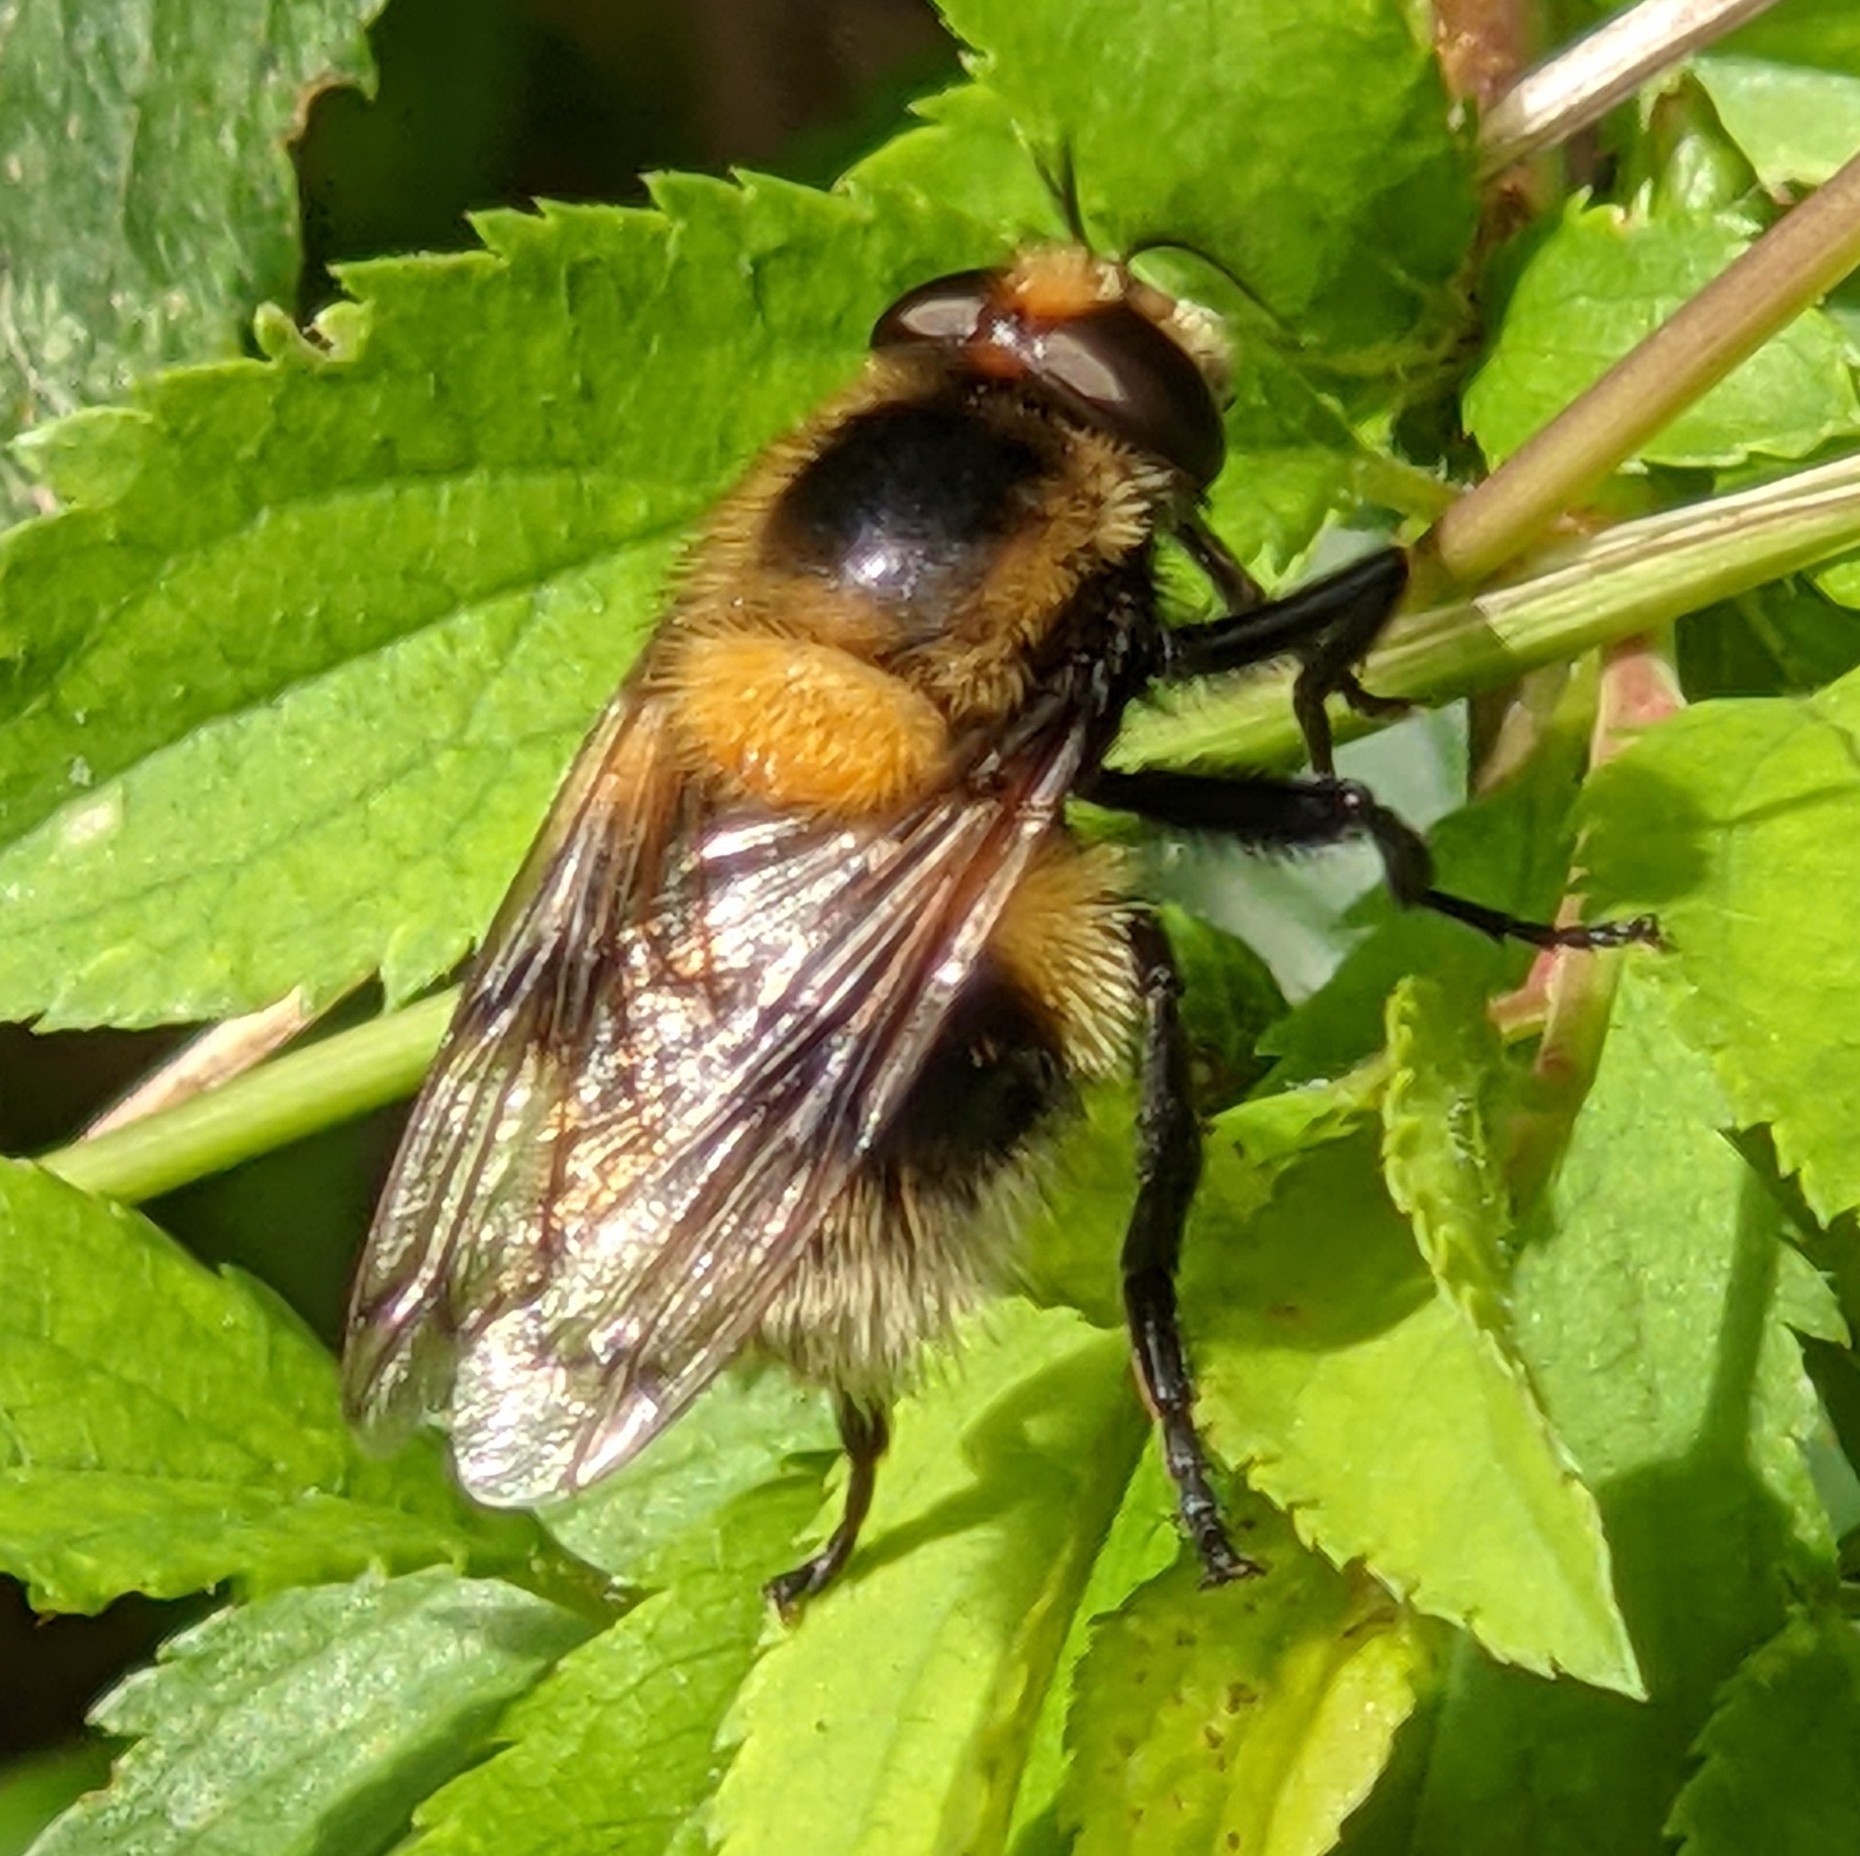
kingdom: Animalia
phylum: Arthropoda
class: Insecta
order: Diptera
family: Syrphidae
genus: Volucella
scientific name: Volucella bombylans
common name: Bumble bee hover fly
